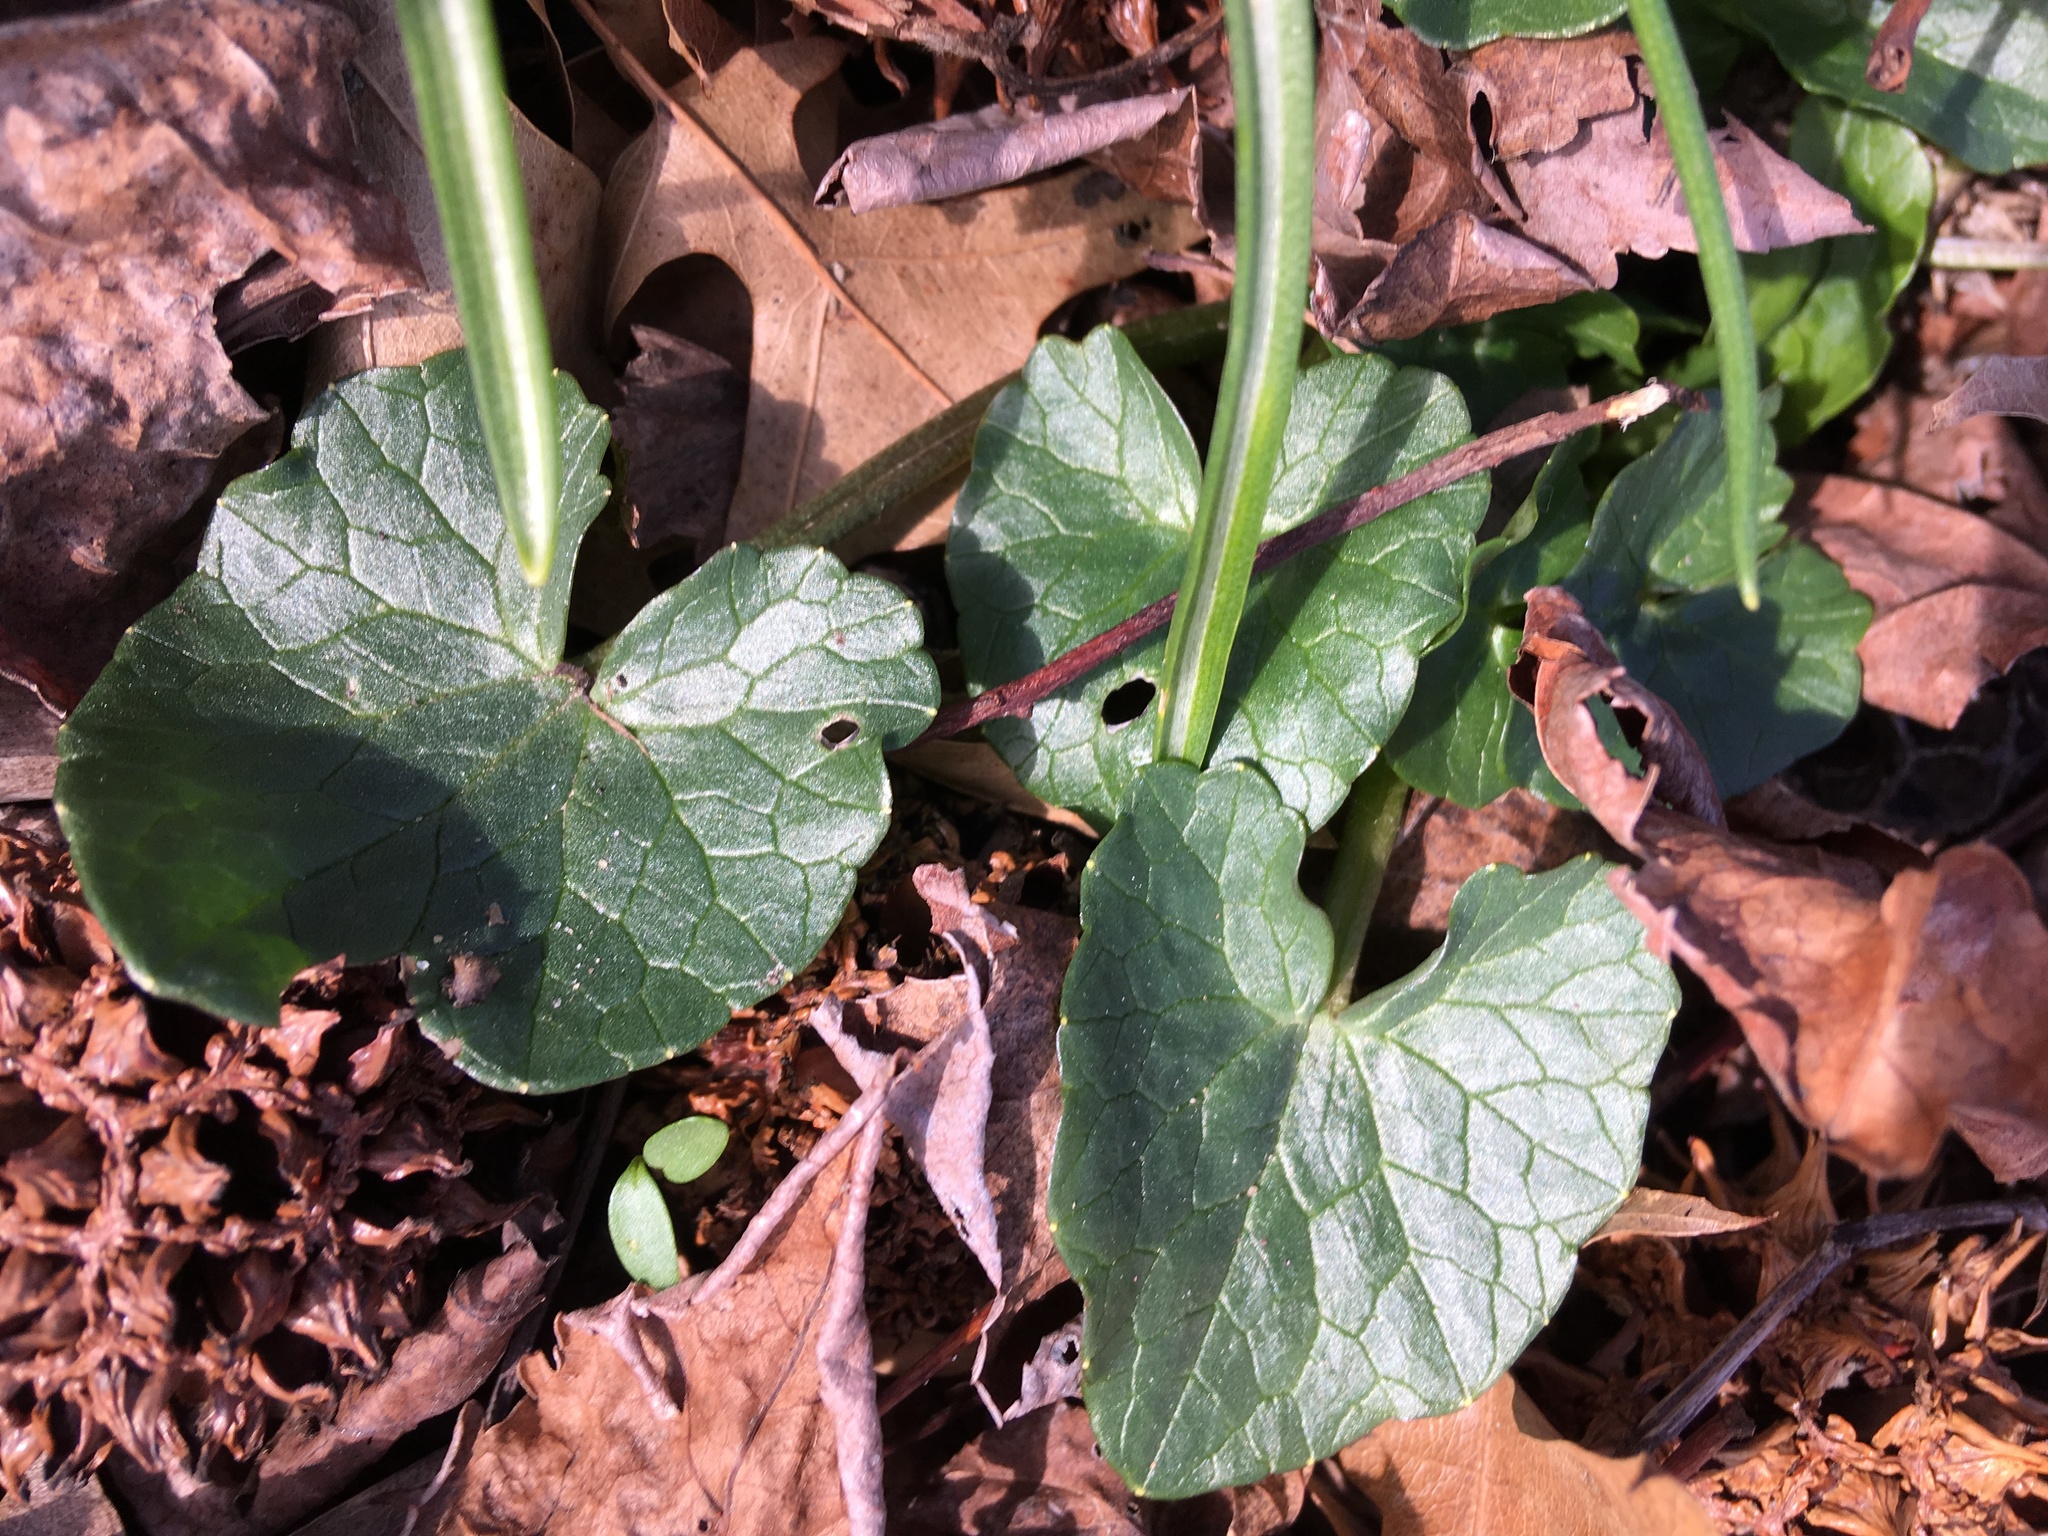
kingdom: Plantae
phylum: Tracheophyta
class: Magnoliopsida
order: Ranunculales
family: Ranunculaceae
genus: Ficaria
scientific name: Ficaria verna
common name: Lesser celandine
